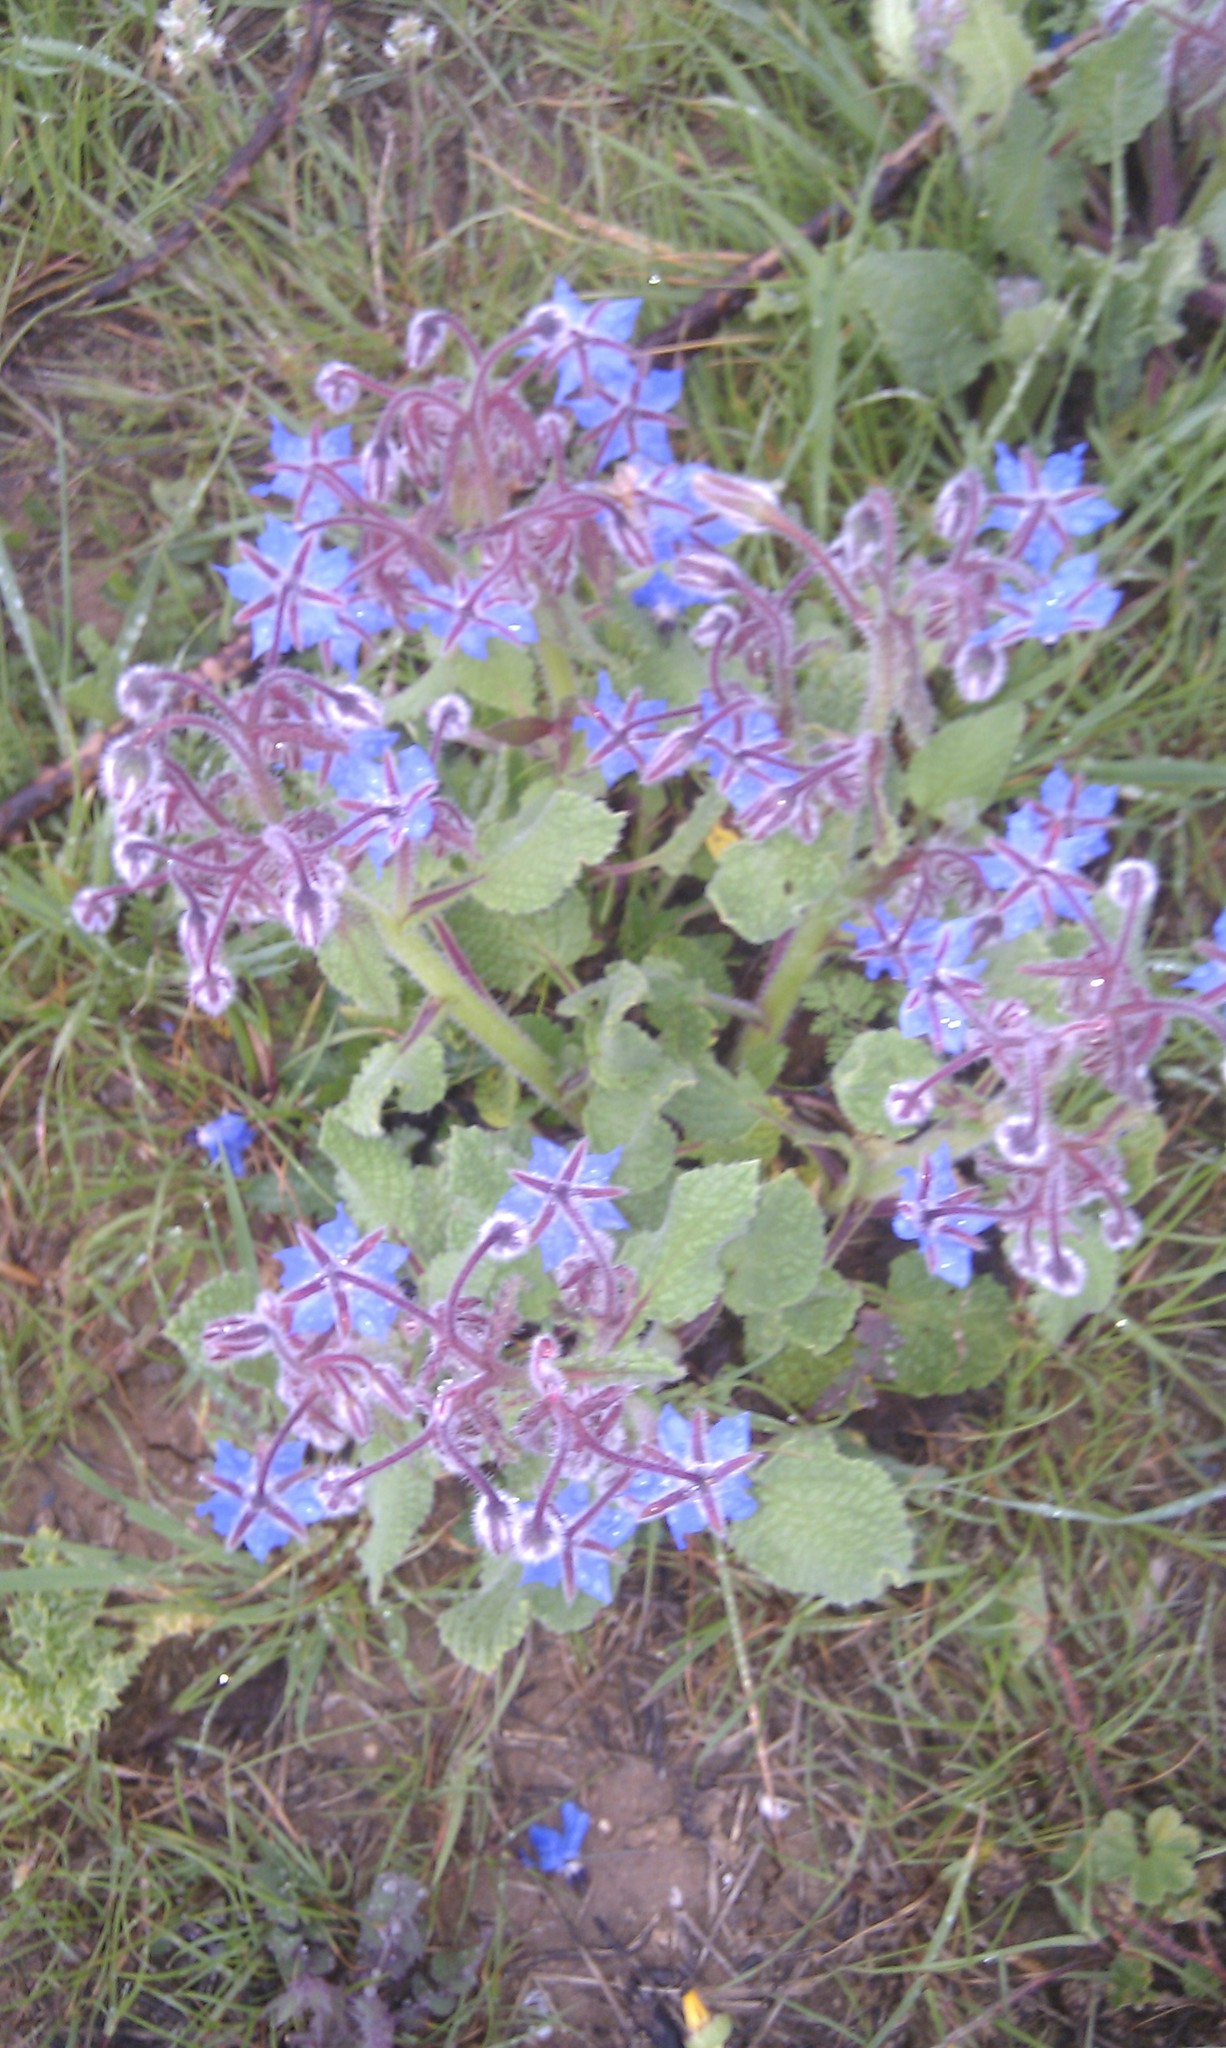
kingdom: Plantae
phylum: Tracheophyta
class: Magnoliopsida
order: Boraginales
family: Boraginaceae
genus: Borago
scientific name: Borago officinalis
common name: Borage
